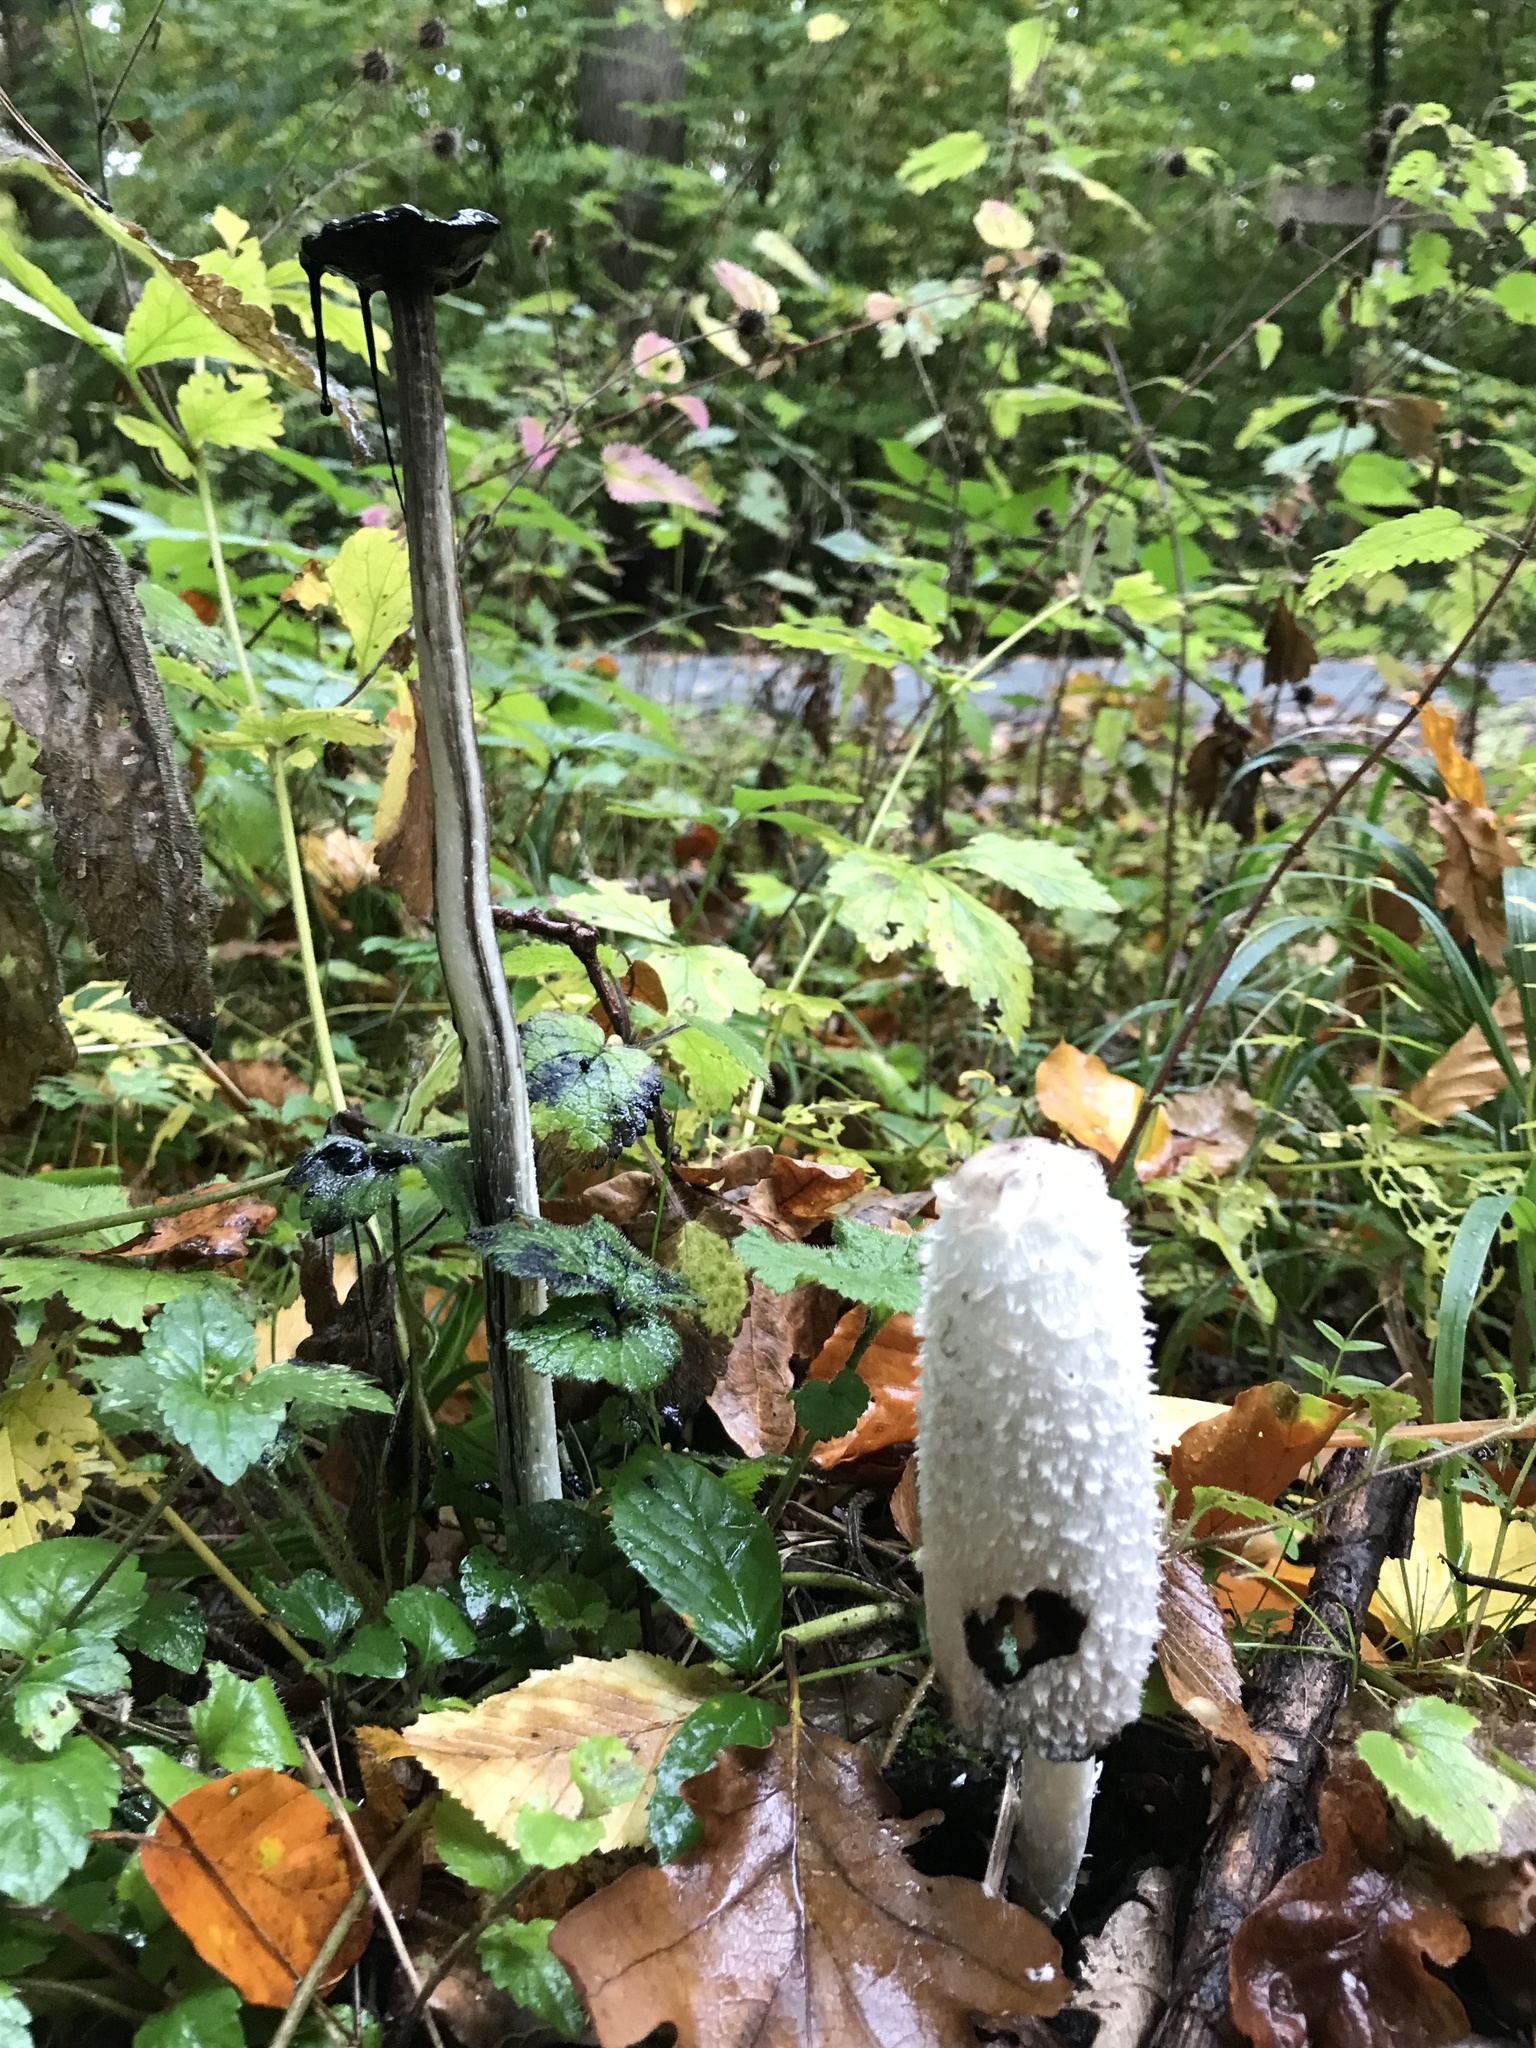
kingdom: Fungi
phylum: Basidiomycota
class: Agaricomycetes
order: Agaricales
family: Agaricaceae
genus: Coprinus
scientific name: Coprinus comatus
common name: Lawyer's wig
